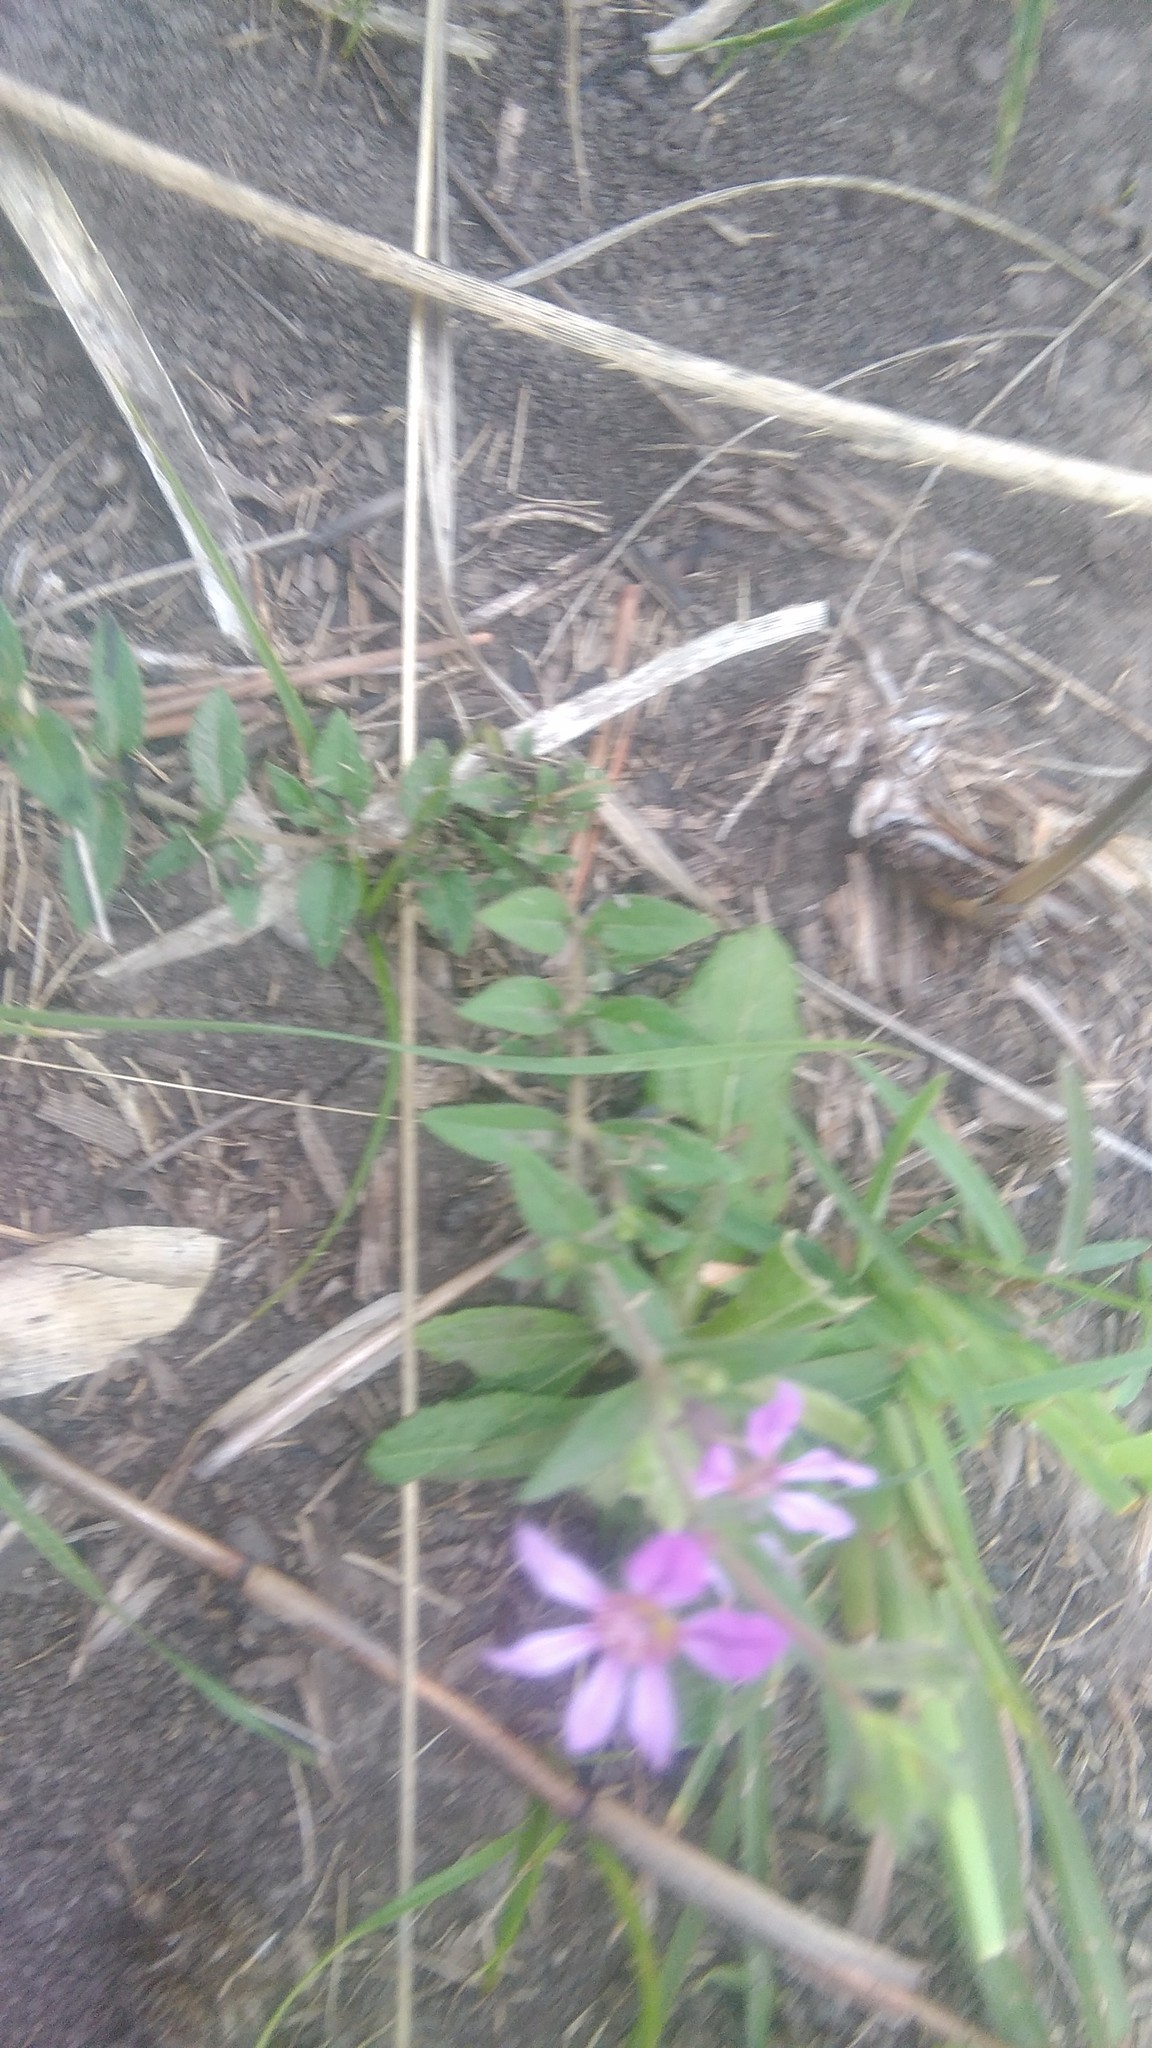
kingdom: Plantae
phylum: Tracheophyta
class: Magnoliopsida
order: Myrtales
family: Lythraceae
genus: Cuphea
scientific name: Cuphea glutinosa
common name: Sticky waxweed
